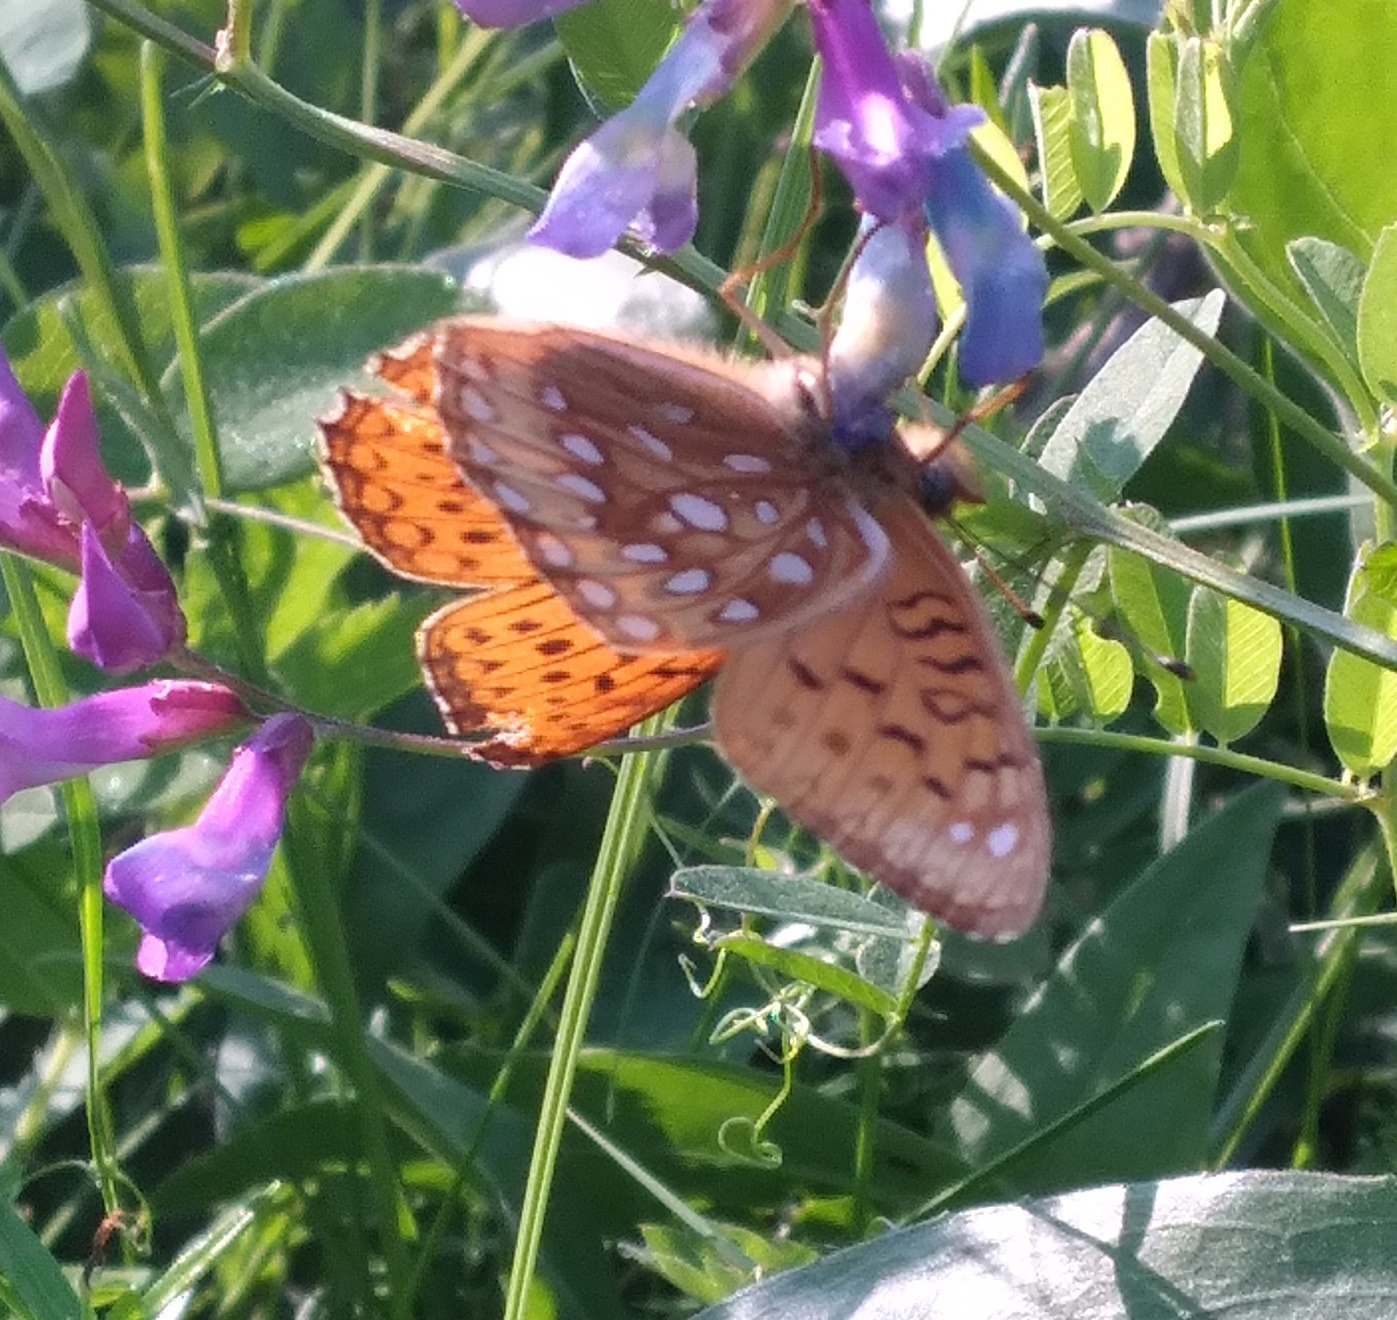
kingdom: Animalia
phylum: Arthropoda
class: Insecta
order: Lepidoptera
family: Nymphalidae
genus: Speyeria
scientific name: Speyeria atlantis
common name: Atlantis fritillary
